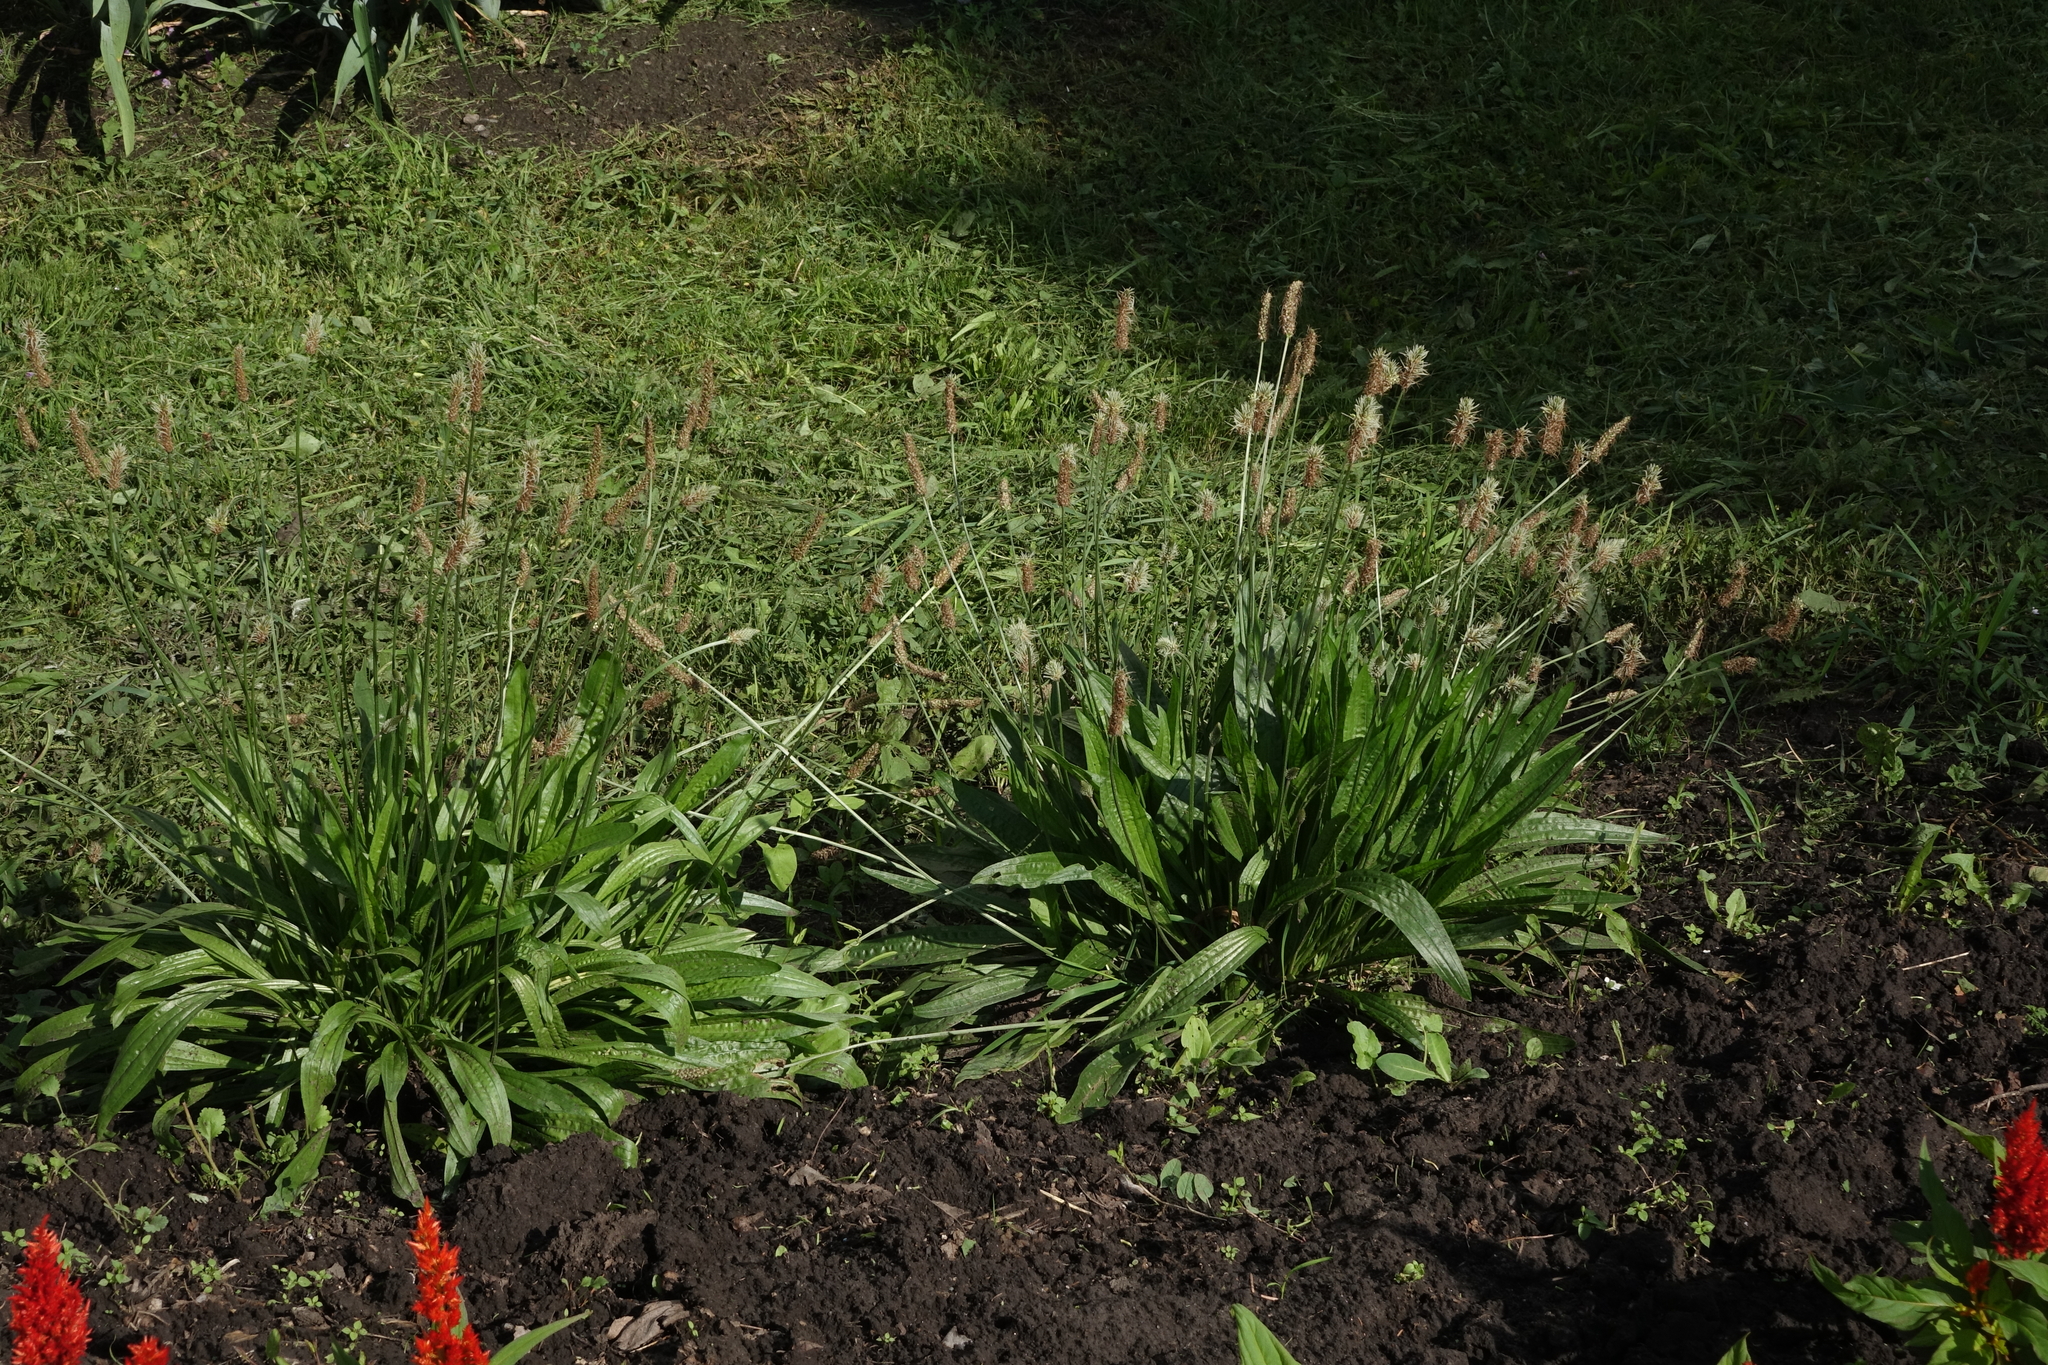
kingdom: Plantae
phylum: Tracheophyta
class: Magnoliopsida
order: Lamiales
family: Plantaginaceae
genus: Plantago
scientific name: Plantago lanceolata
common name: Ribwort plantain
